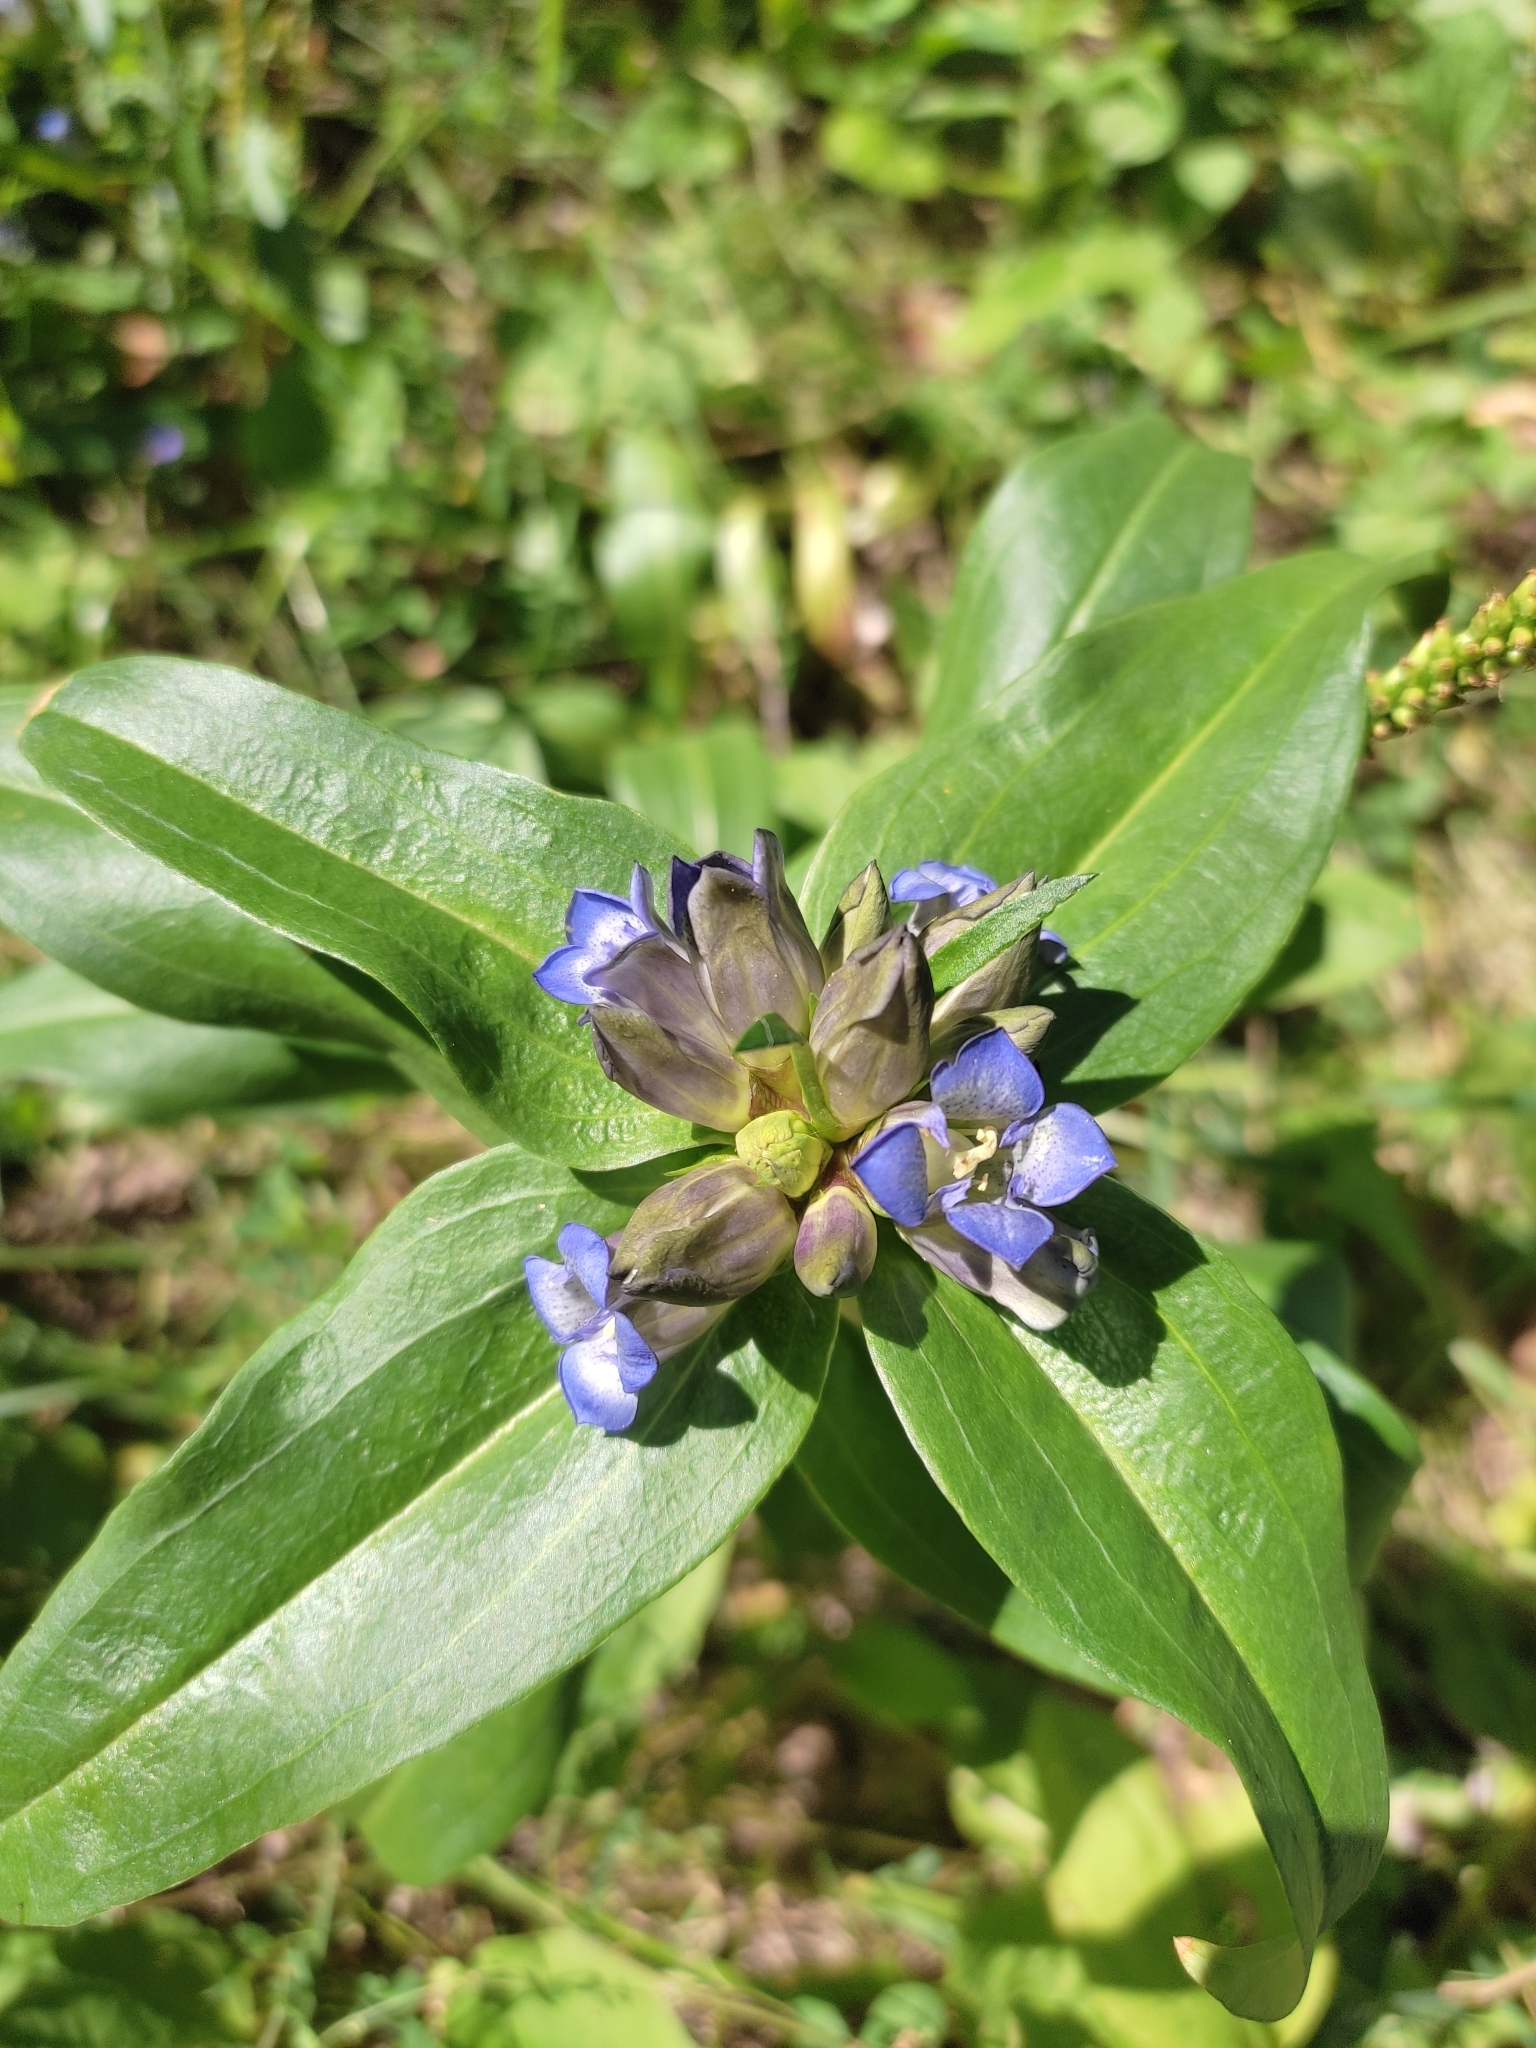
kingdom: Plantae
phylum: Tracheophyta
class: Magnoliopsida
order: Gentianales
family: Gentianaceae
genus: Gentiana
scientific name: Gentiana cruciata
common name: Cross gentian
